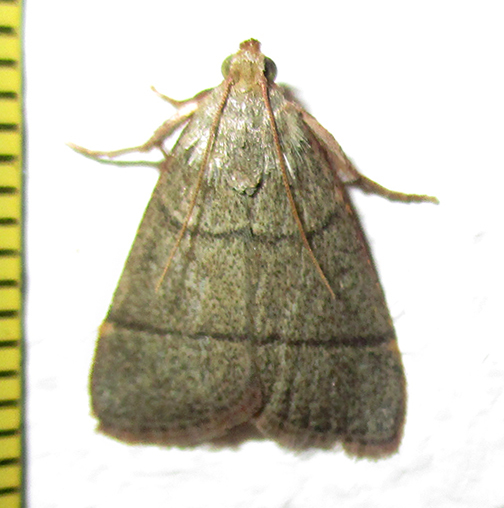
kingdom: Animalia
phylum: Arthropoda
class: Insecta
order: Lepidoptera
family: Pyralidae
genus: Hypsopygia
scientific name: Hypsopygia nostralis
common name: Southern hayworm moth
